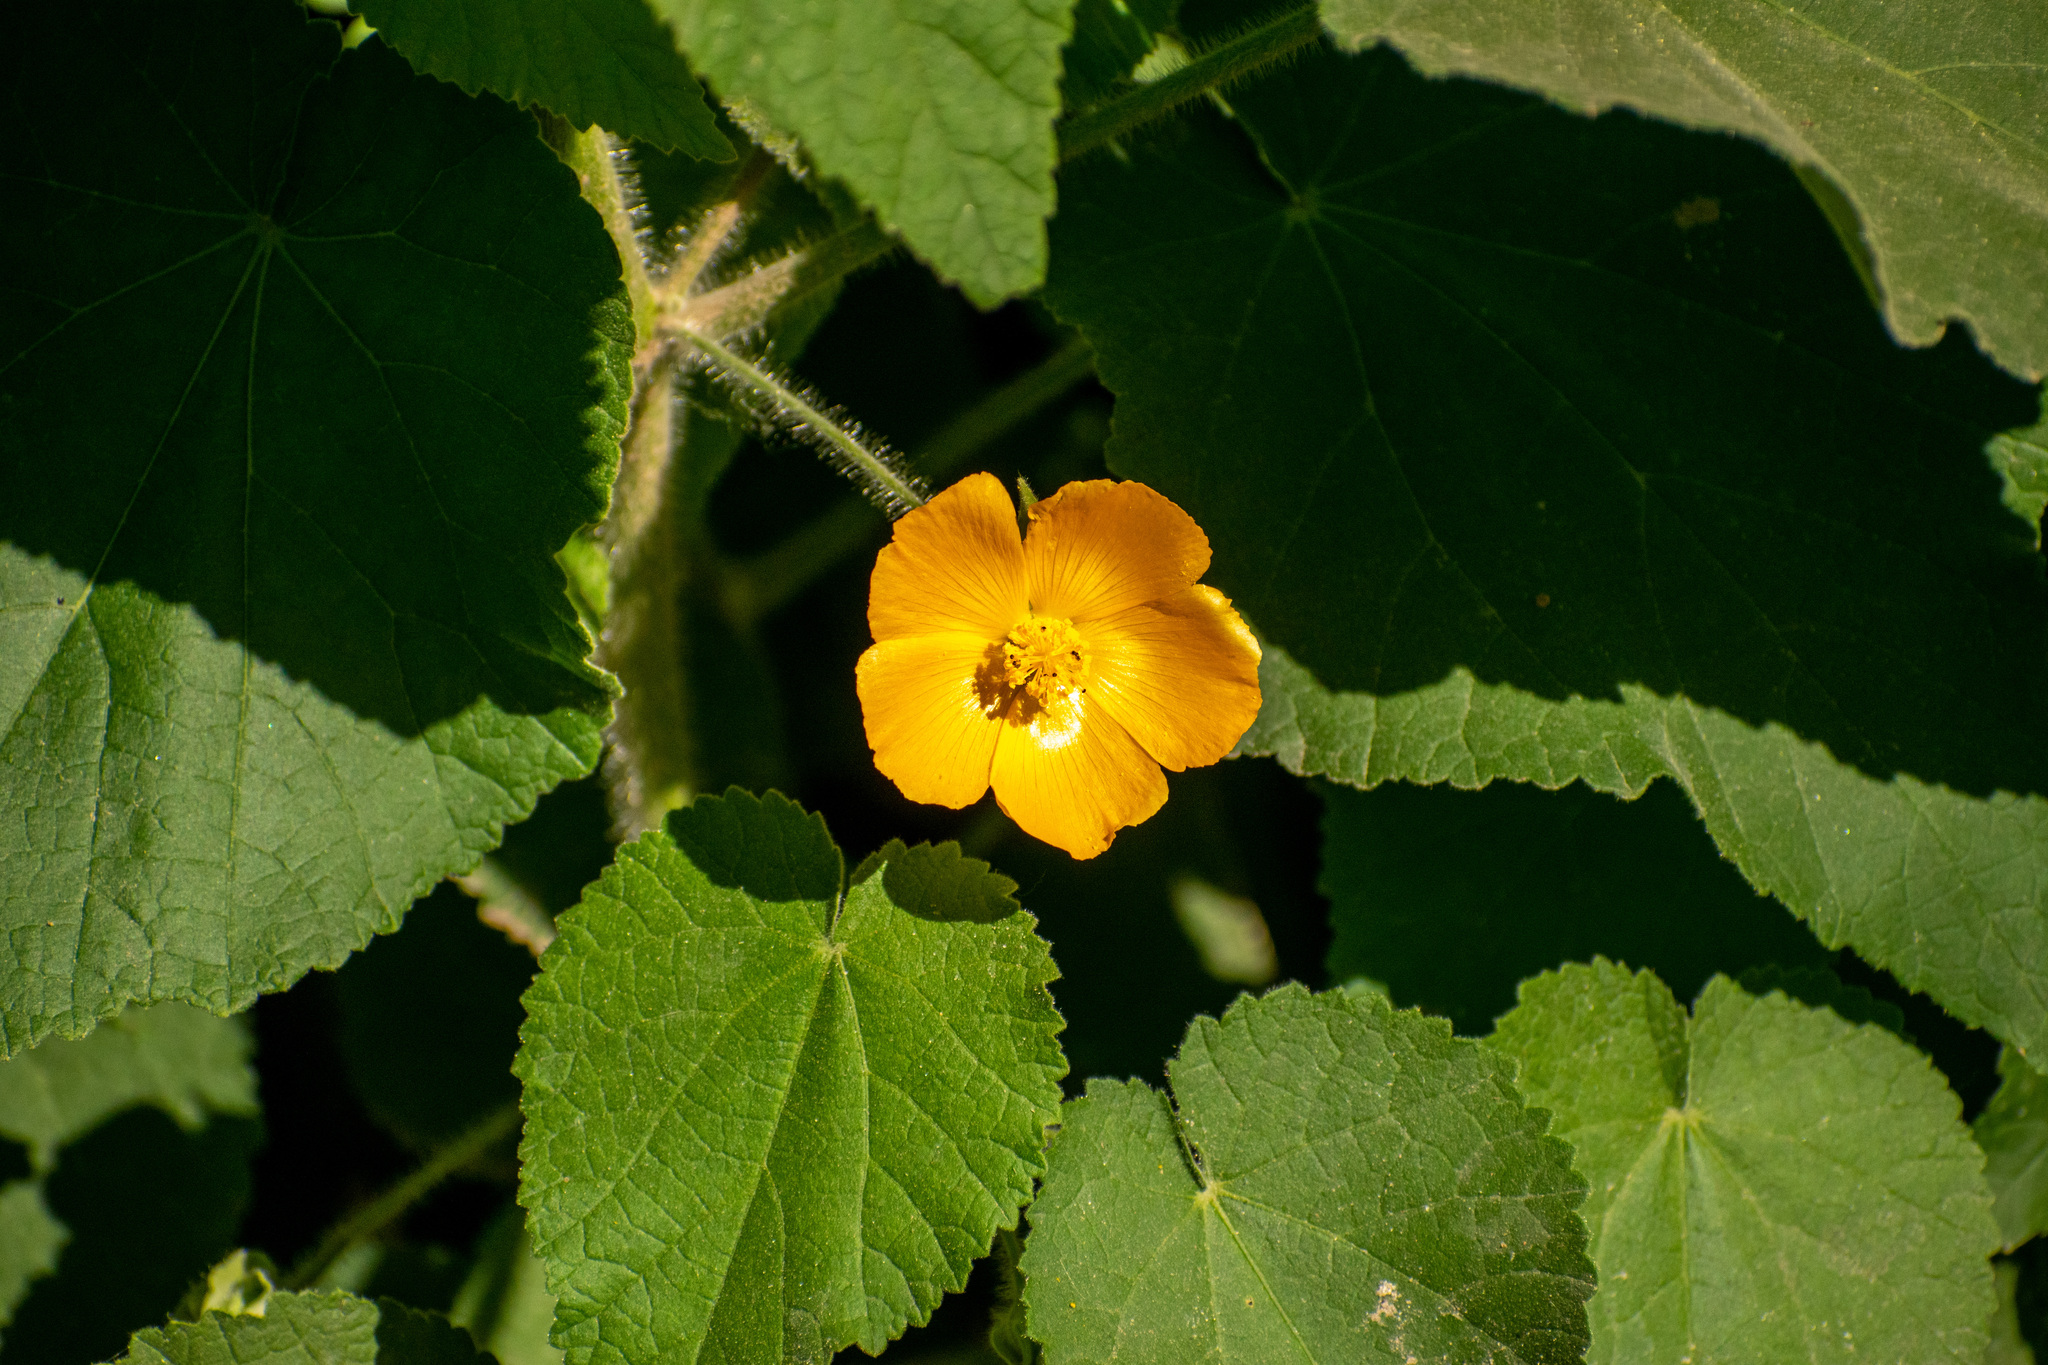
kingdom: Plantae
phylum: Tracheophyta
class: Magnoliopsida
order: Malvales
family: Malvaceae
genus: Abutilon
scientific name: Abutilon grandifolium
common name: Hairy abutilon
